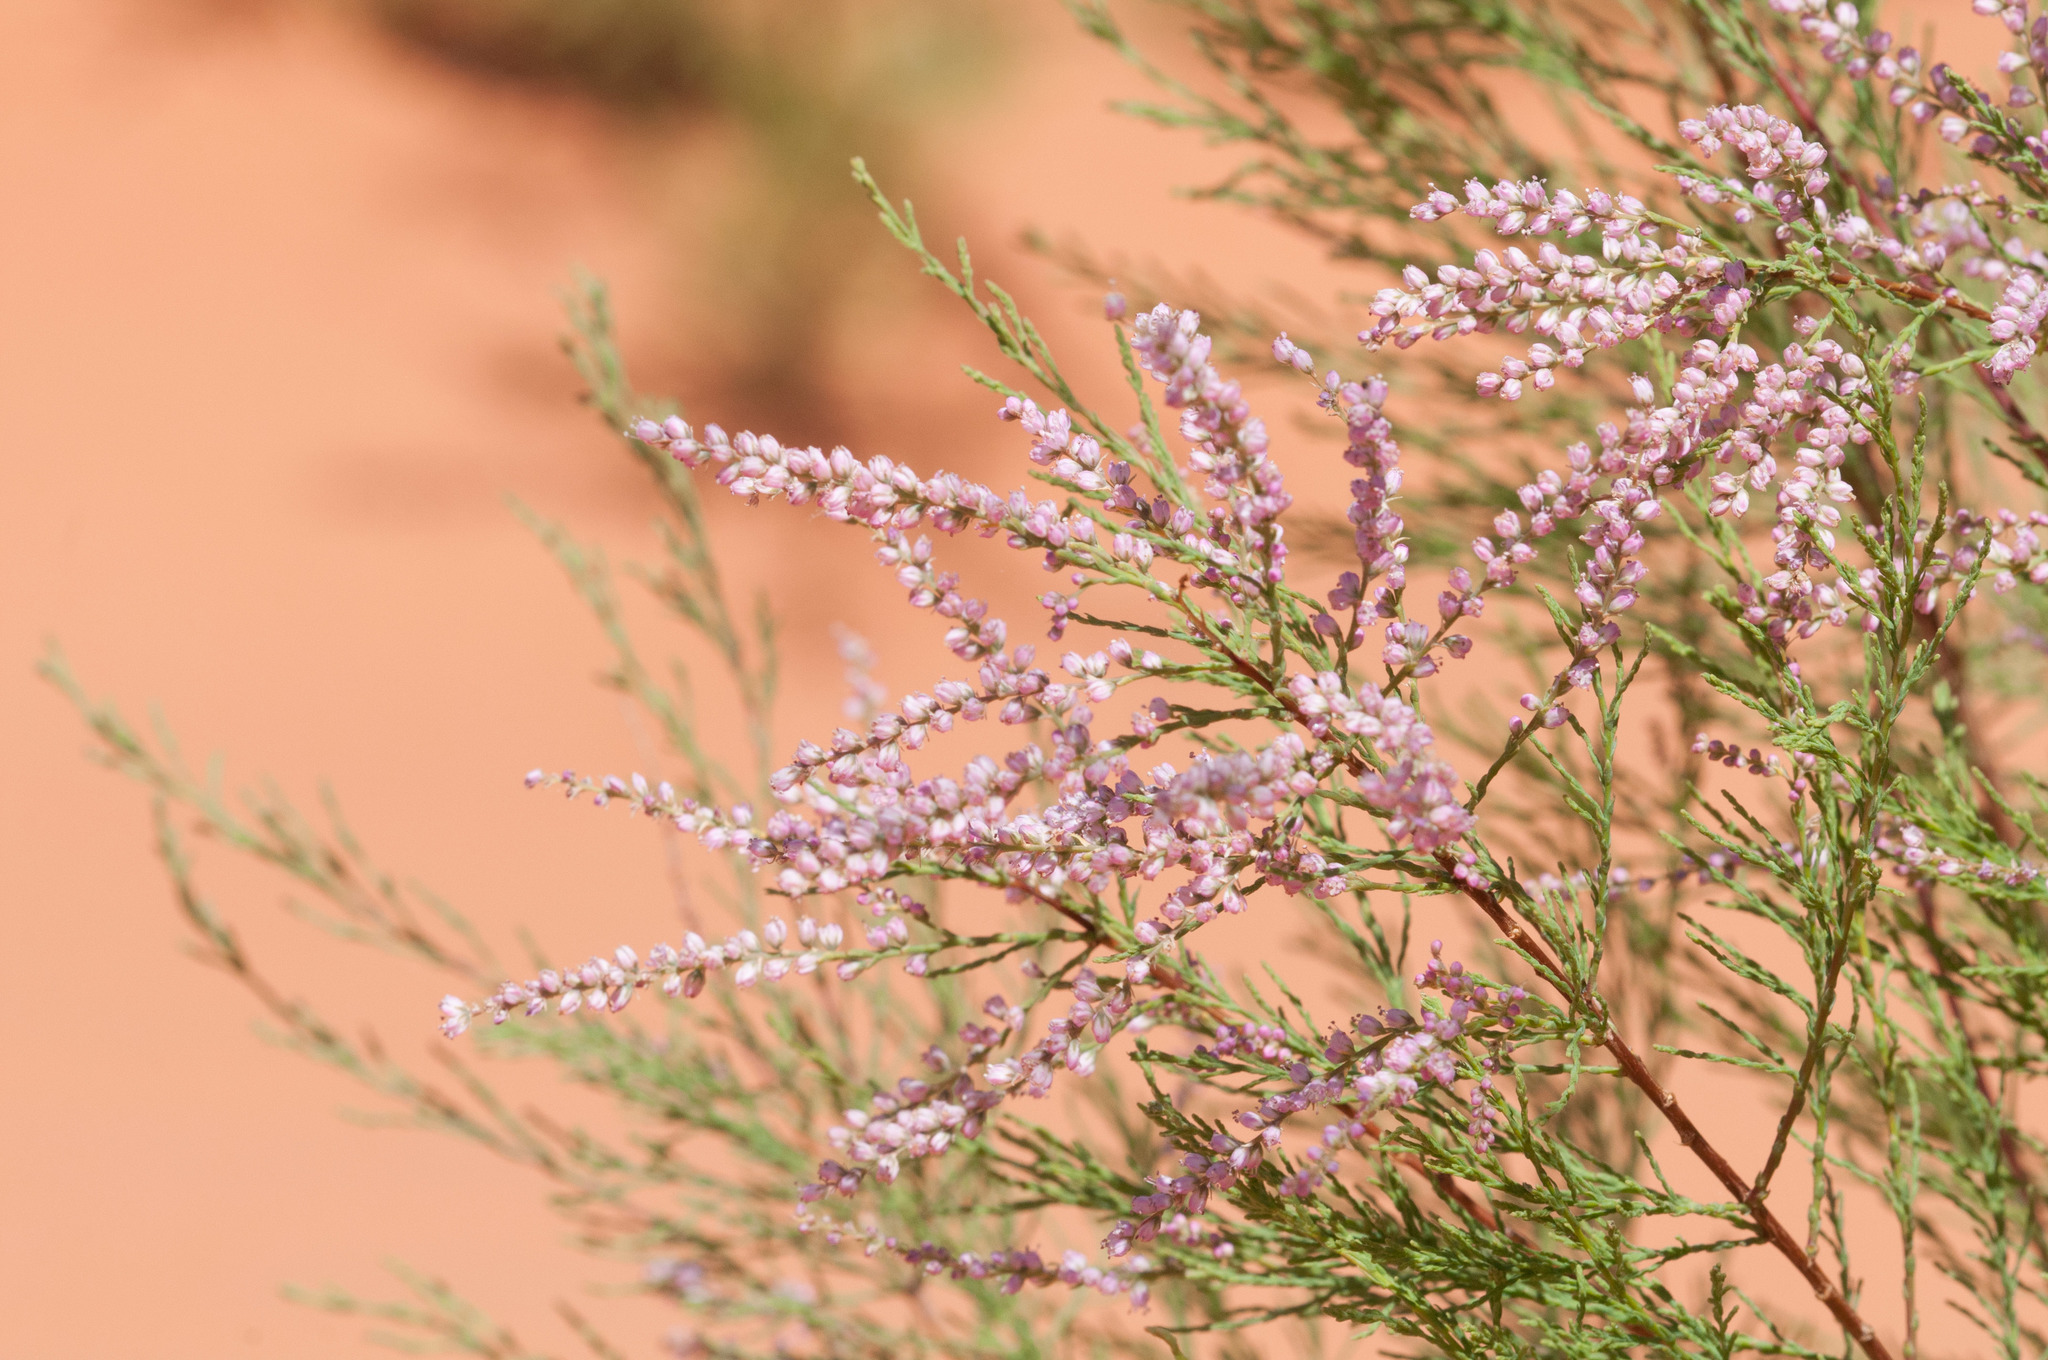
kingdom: Plantae
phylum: Tracheophyta
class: Magnoliopsida
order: Caryophyllales
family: Tamaricaceae
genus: Tamarix
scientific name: Tamarix
